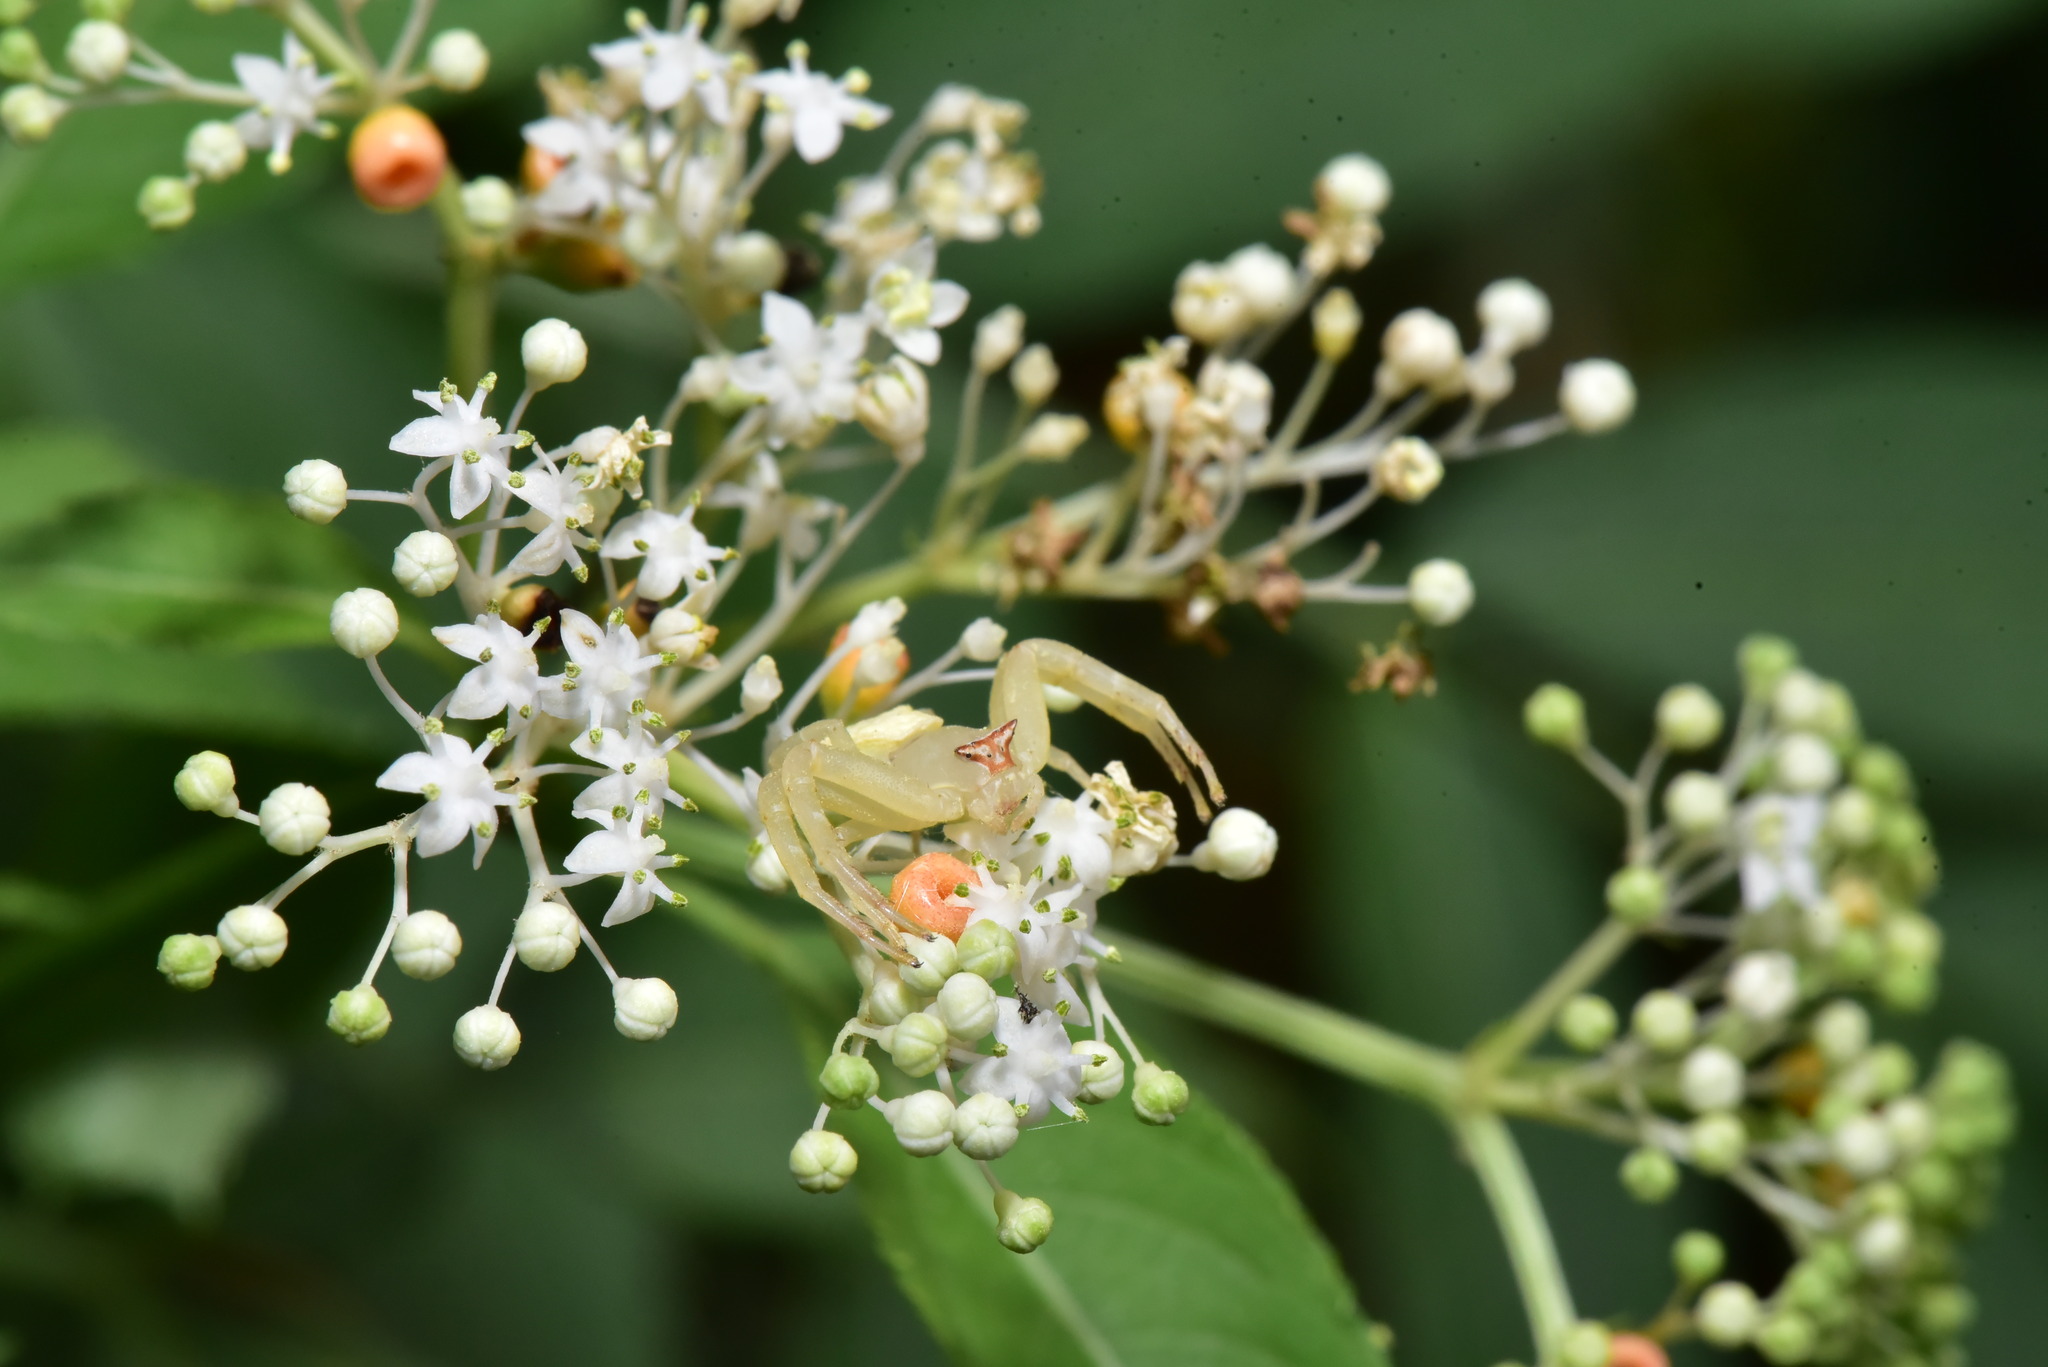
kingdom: Animalia
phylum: Arthropoda
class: Arachnida
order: Araneae
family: Thomisidae
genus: Thomisus
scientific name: Thomisus labefactus
